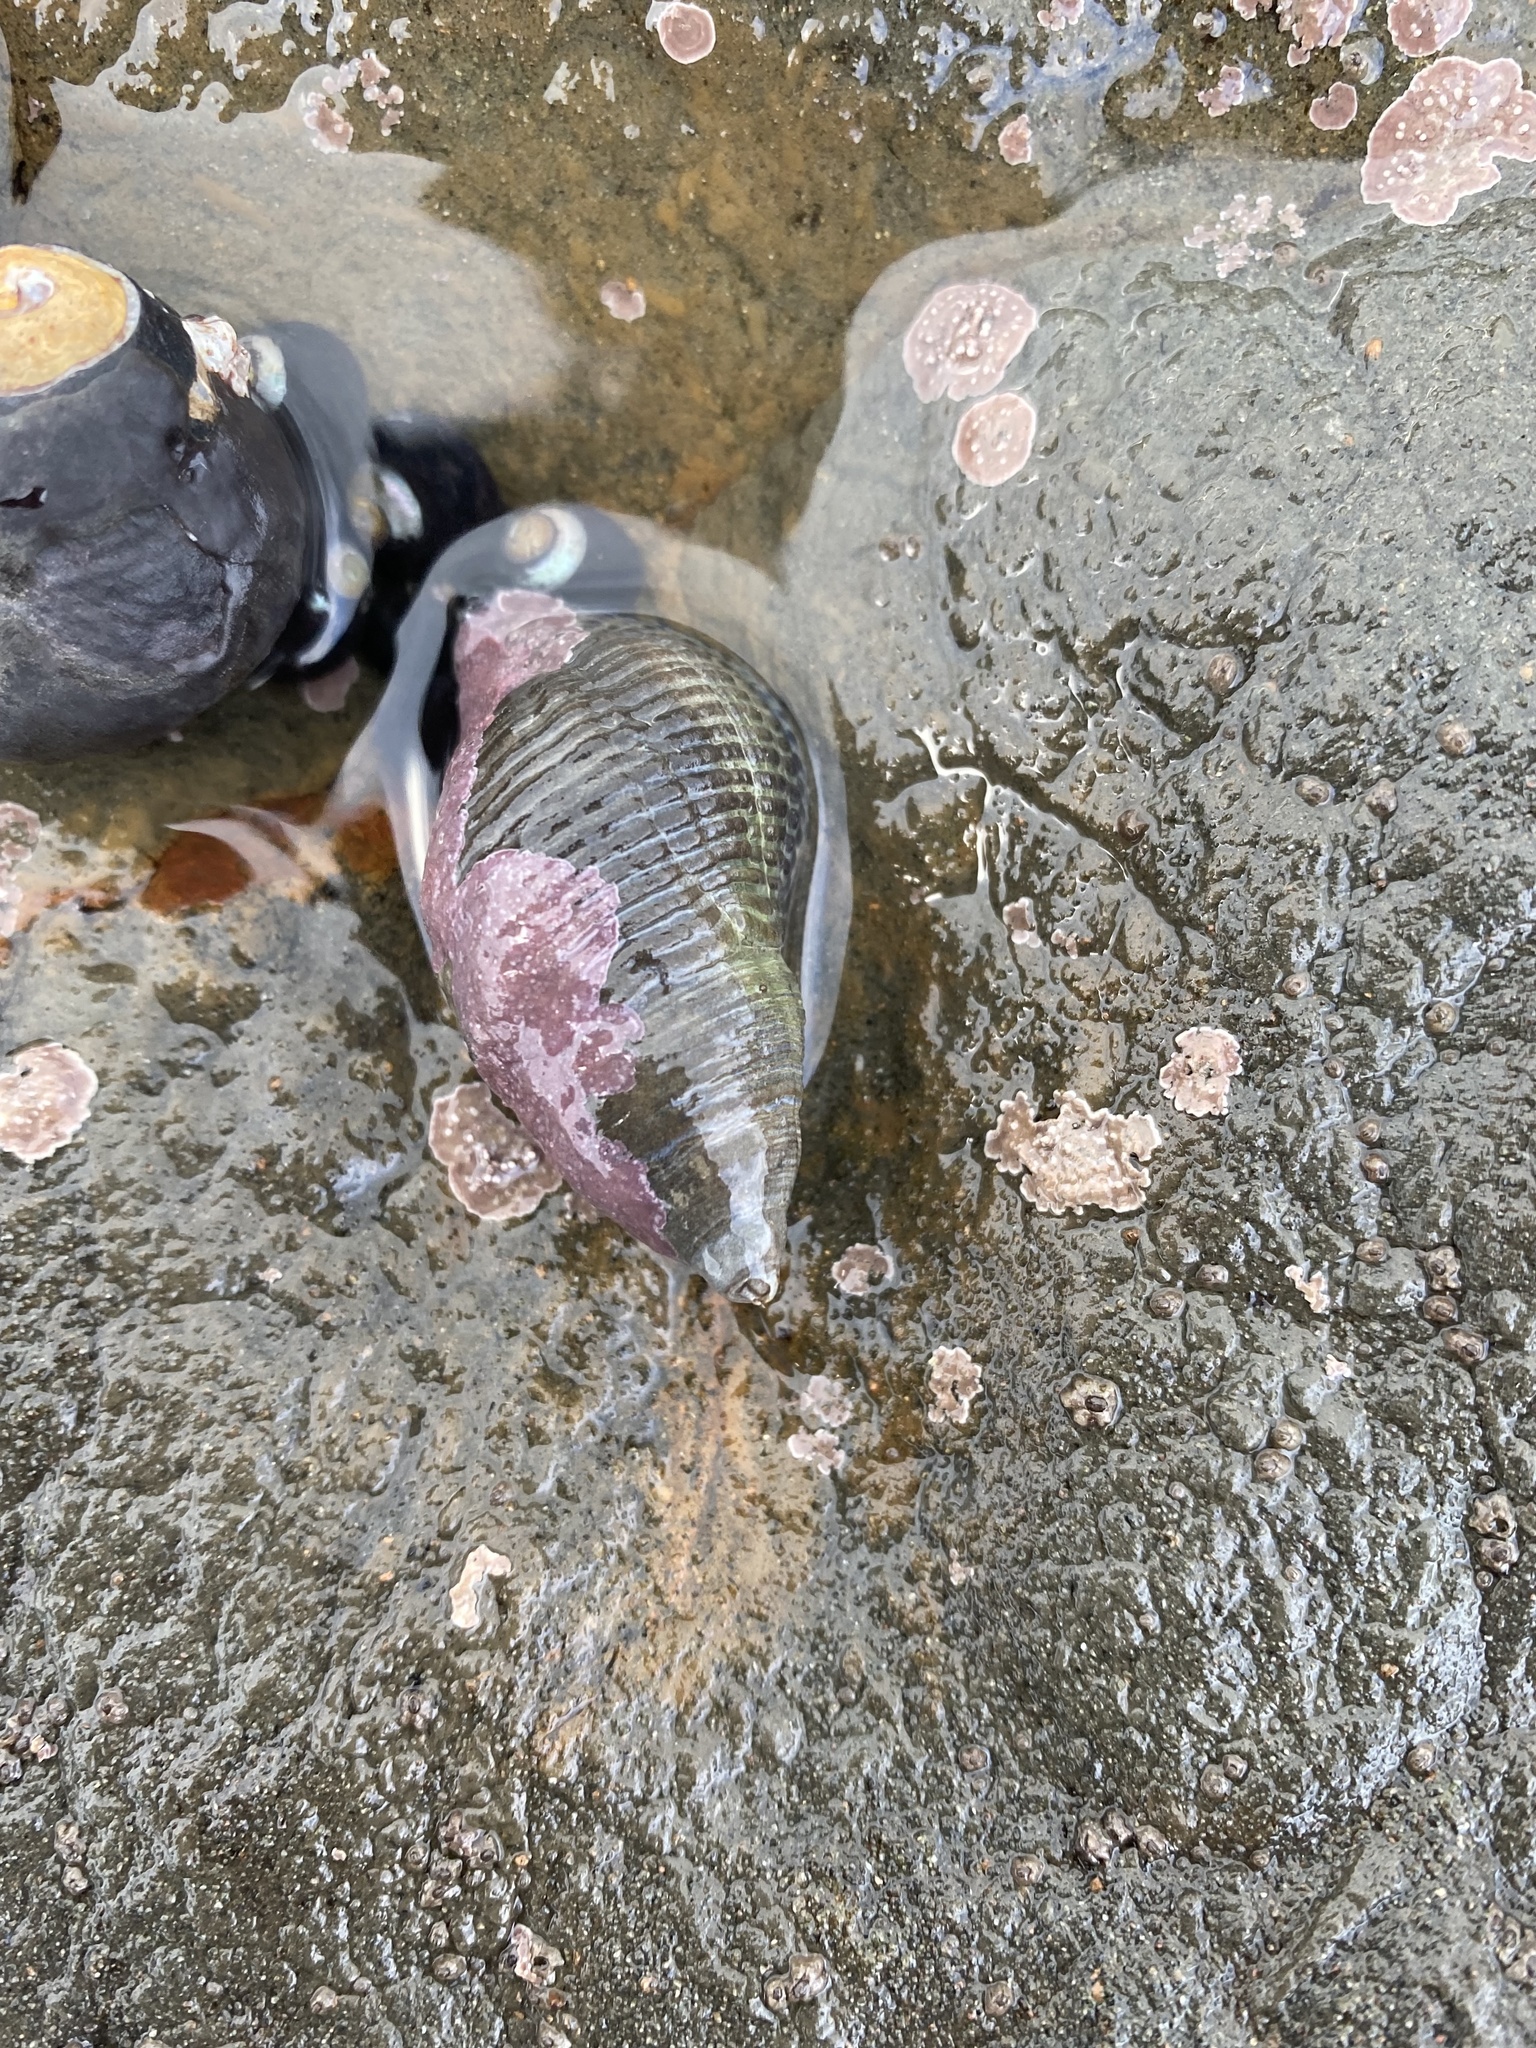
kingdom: Animalia
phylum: Mollusca
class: Gastropoda
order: Neogastropoda
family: Tudiclidae
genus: Lirabuccinum
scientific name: Lirabuccinum dirum
